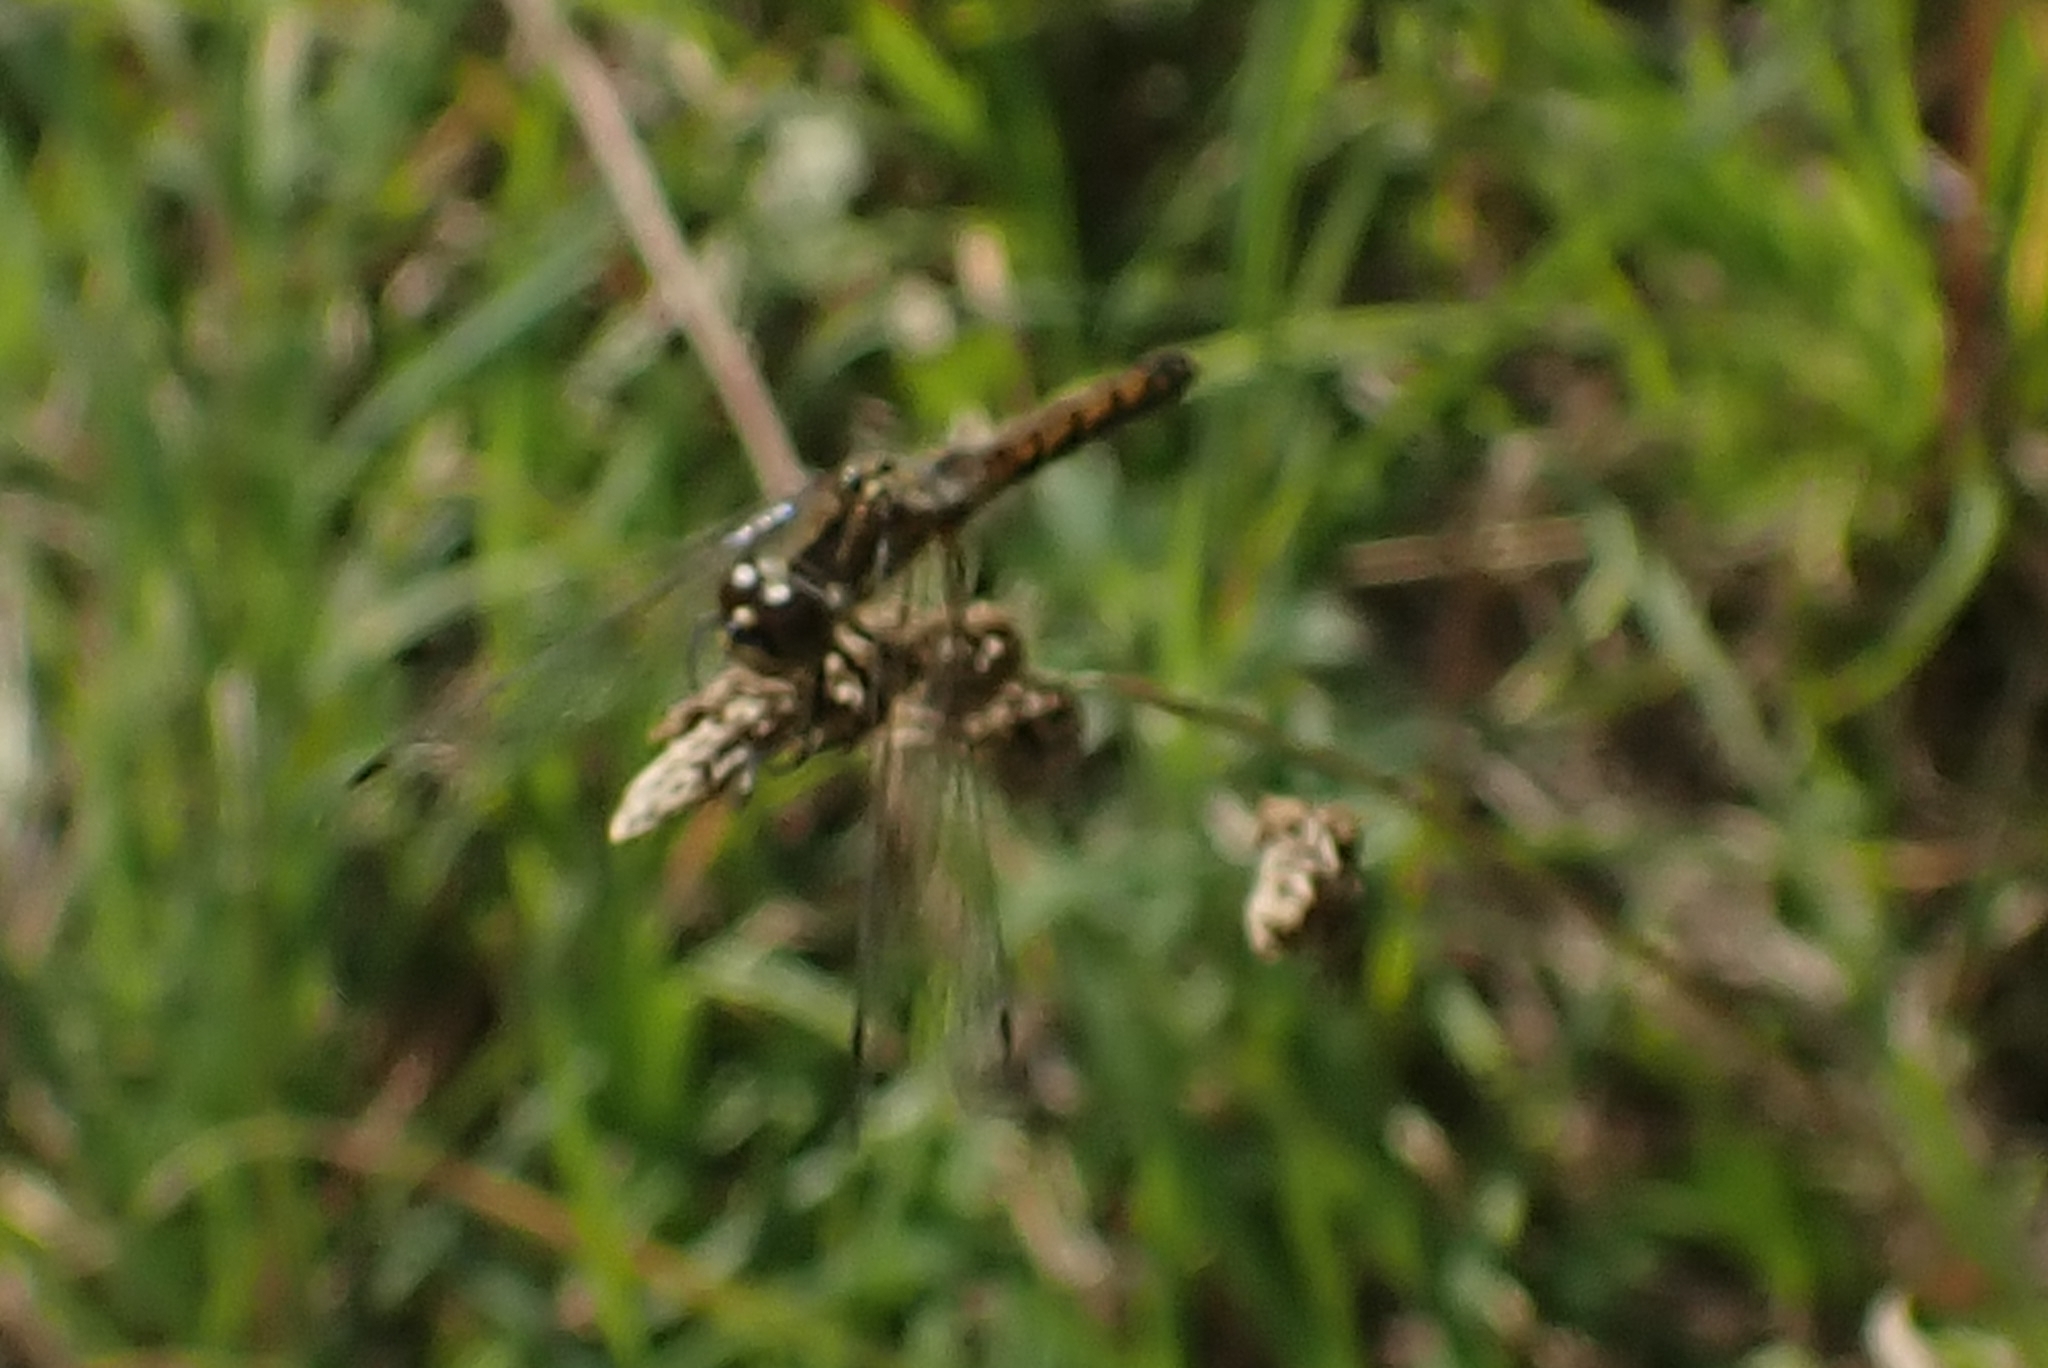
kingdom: Animalia
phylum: Arthropoda
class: Insecta
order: Odonata
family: Libellulidae
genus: Sympetrum
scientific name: Sympetrum danae
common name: Black darter
